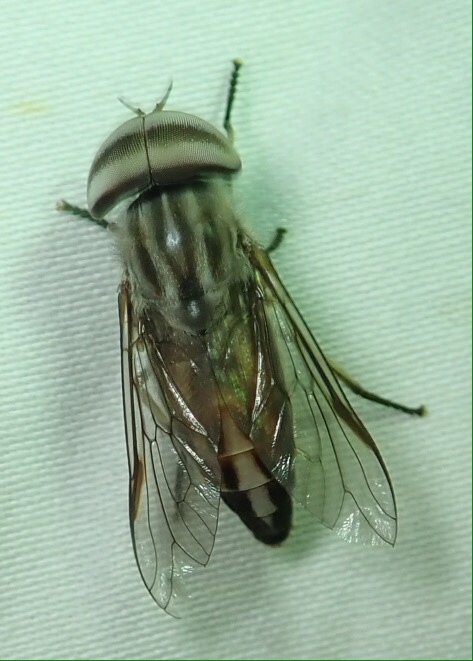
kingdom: Animalia
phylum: Arthropoda
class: Insecta
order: Diptera
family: Tabanidae
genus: Tabanus
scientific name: Tabanus taeniola
